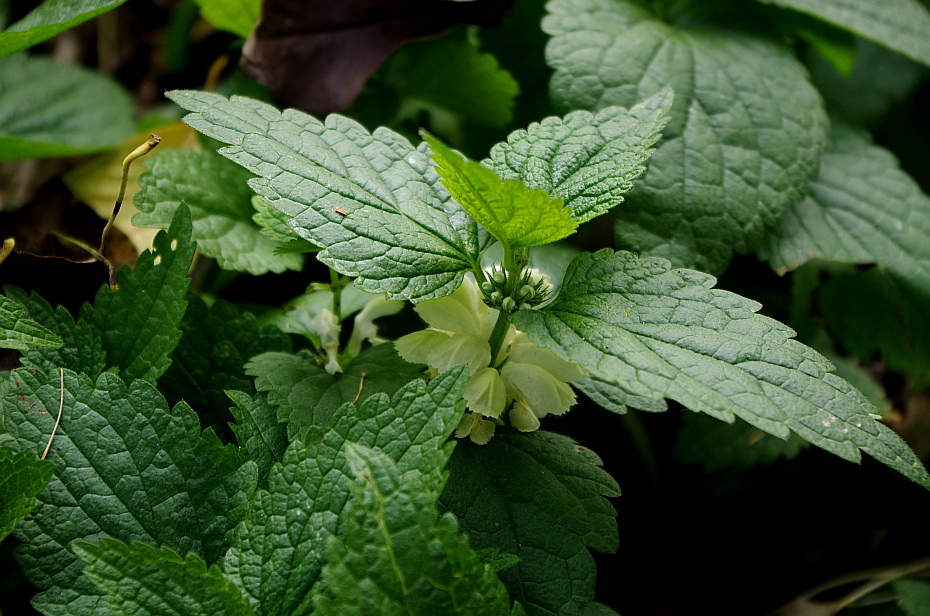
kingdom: Plantae
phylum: Tracheophyta
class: Magnoliopsida
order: Lamiales
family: Lamiaceae
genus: Lamium
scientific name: Lamium album
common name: White dead-nettle
